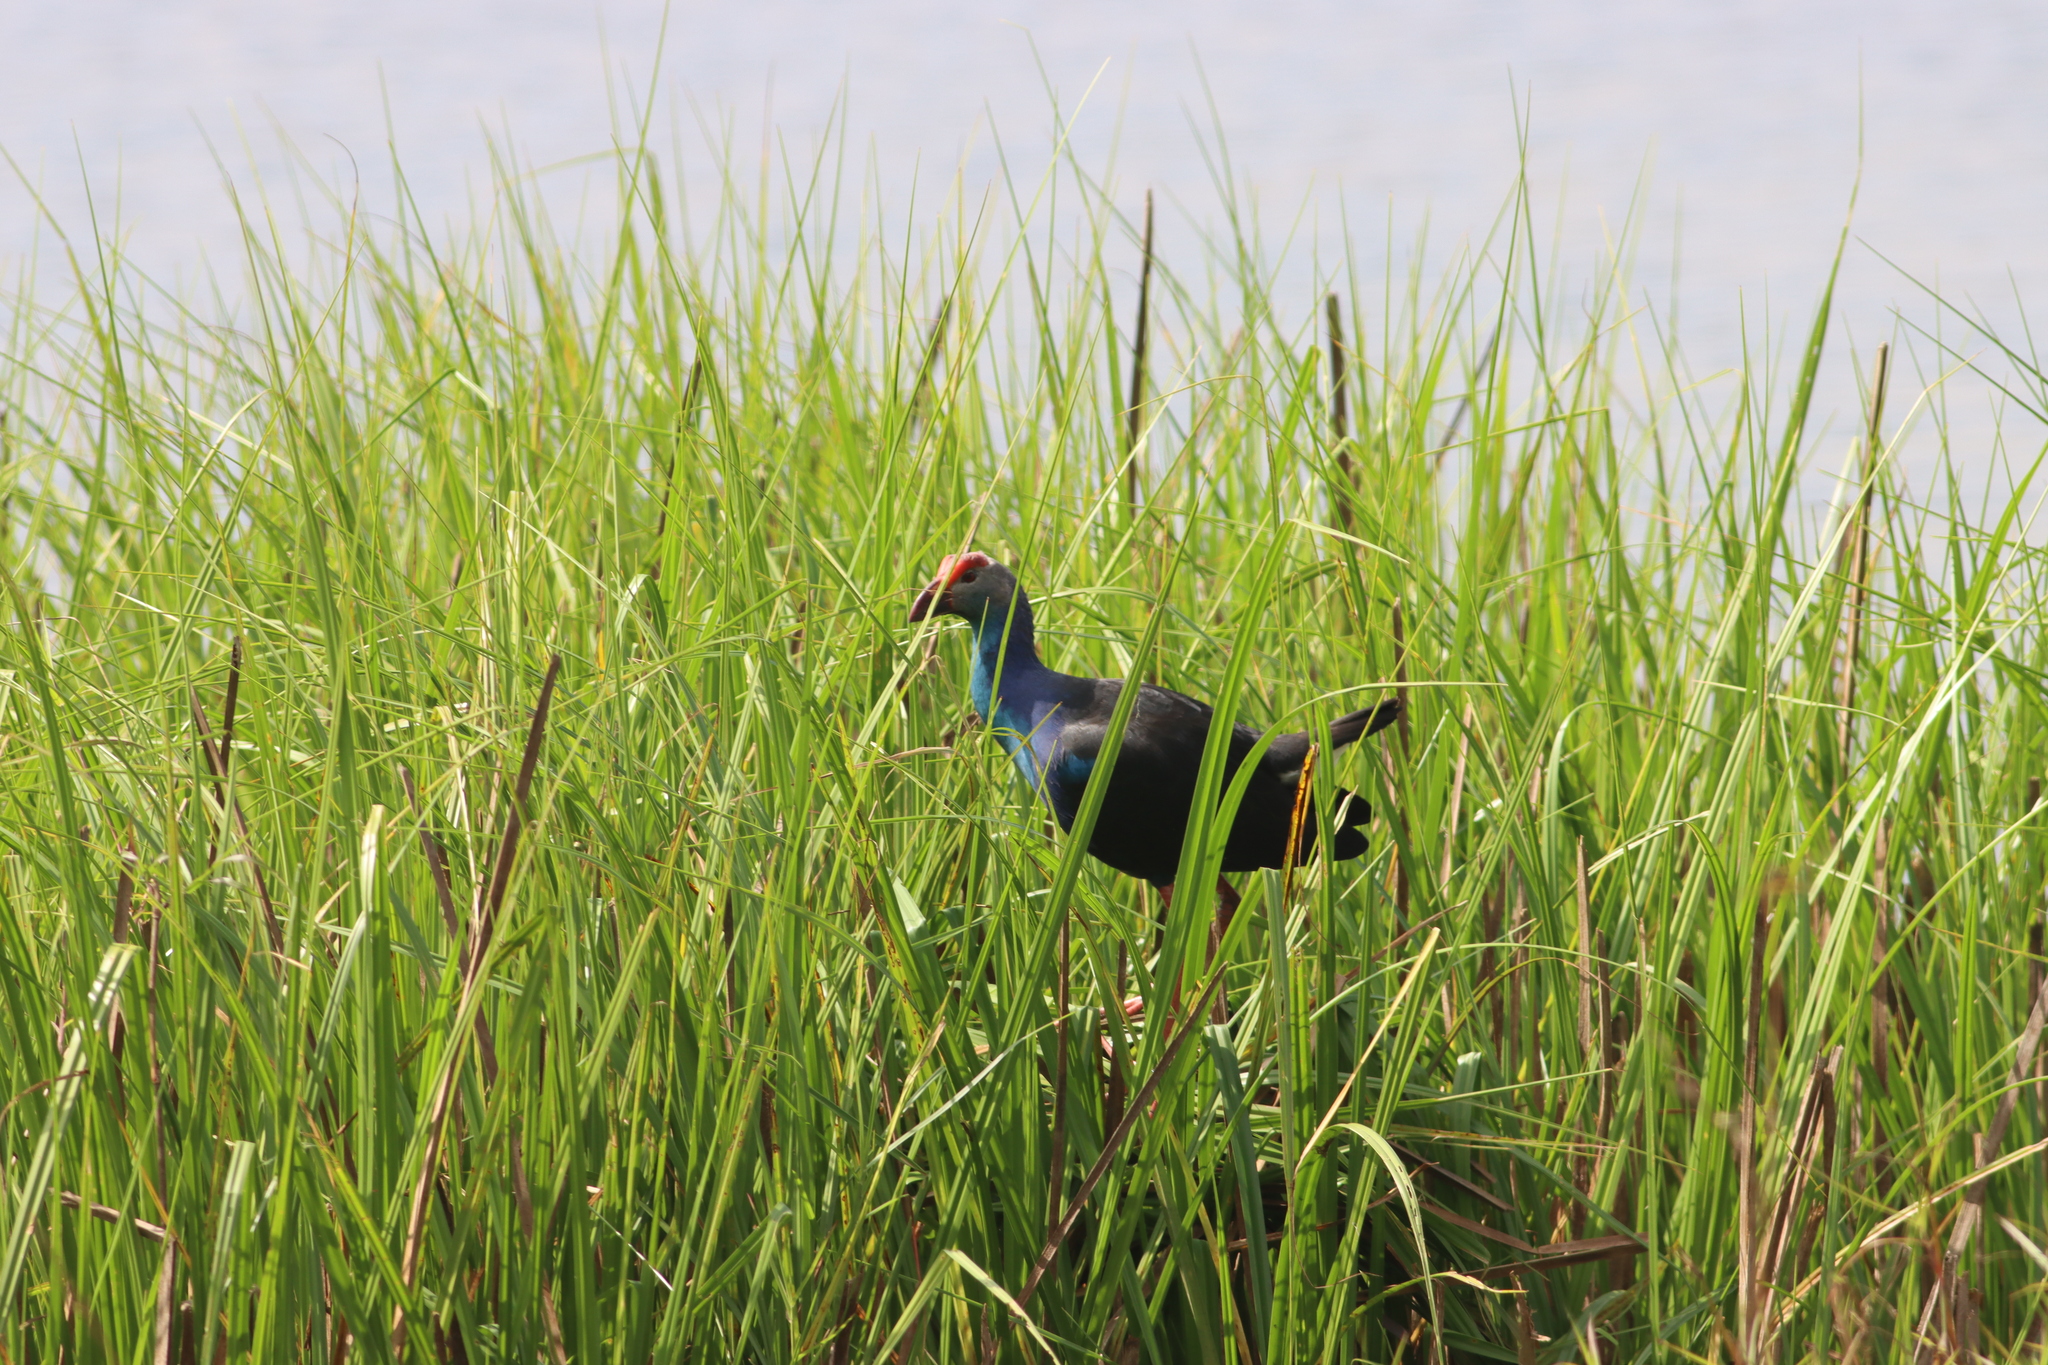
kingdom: Animalia
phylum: Chordata
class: Aves
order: Gruiformes
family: Rallidae
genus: Porphyrio
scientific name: Porphyrio porphyrio
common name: Purple swamphen
